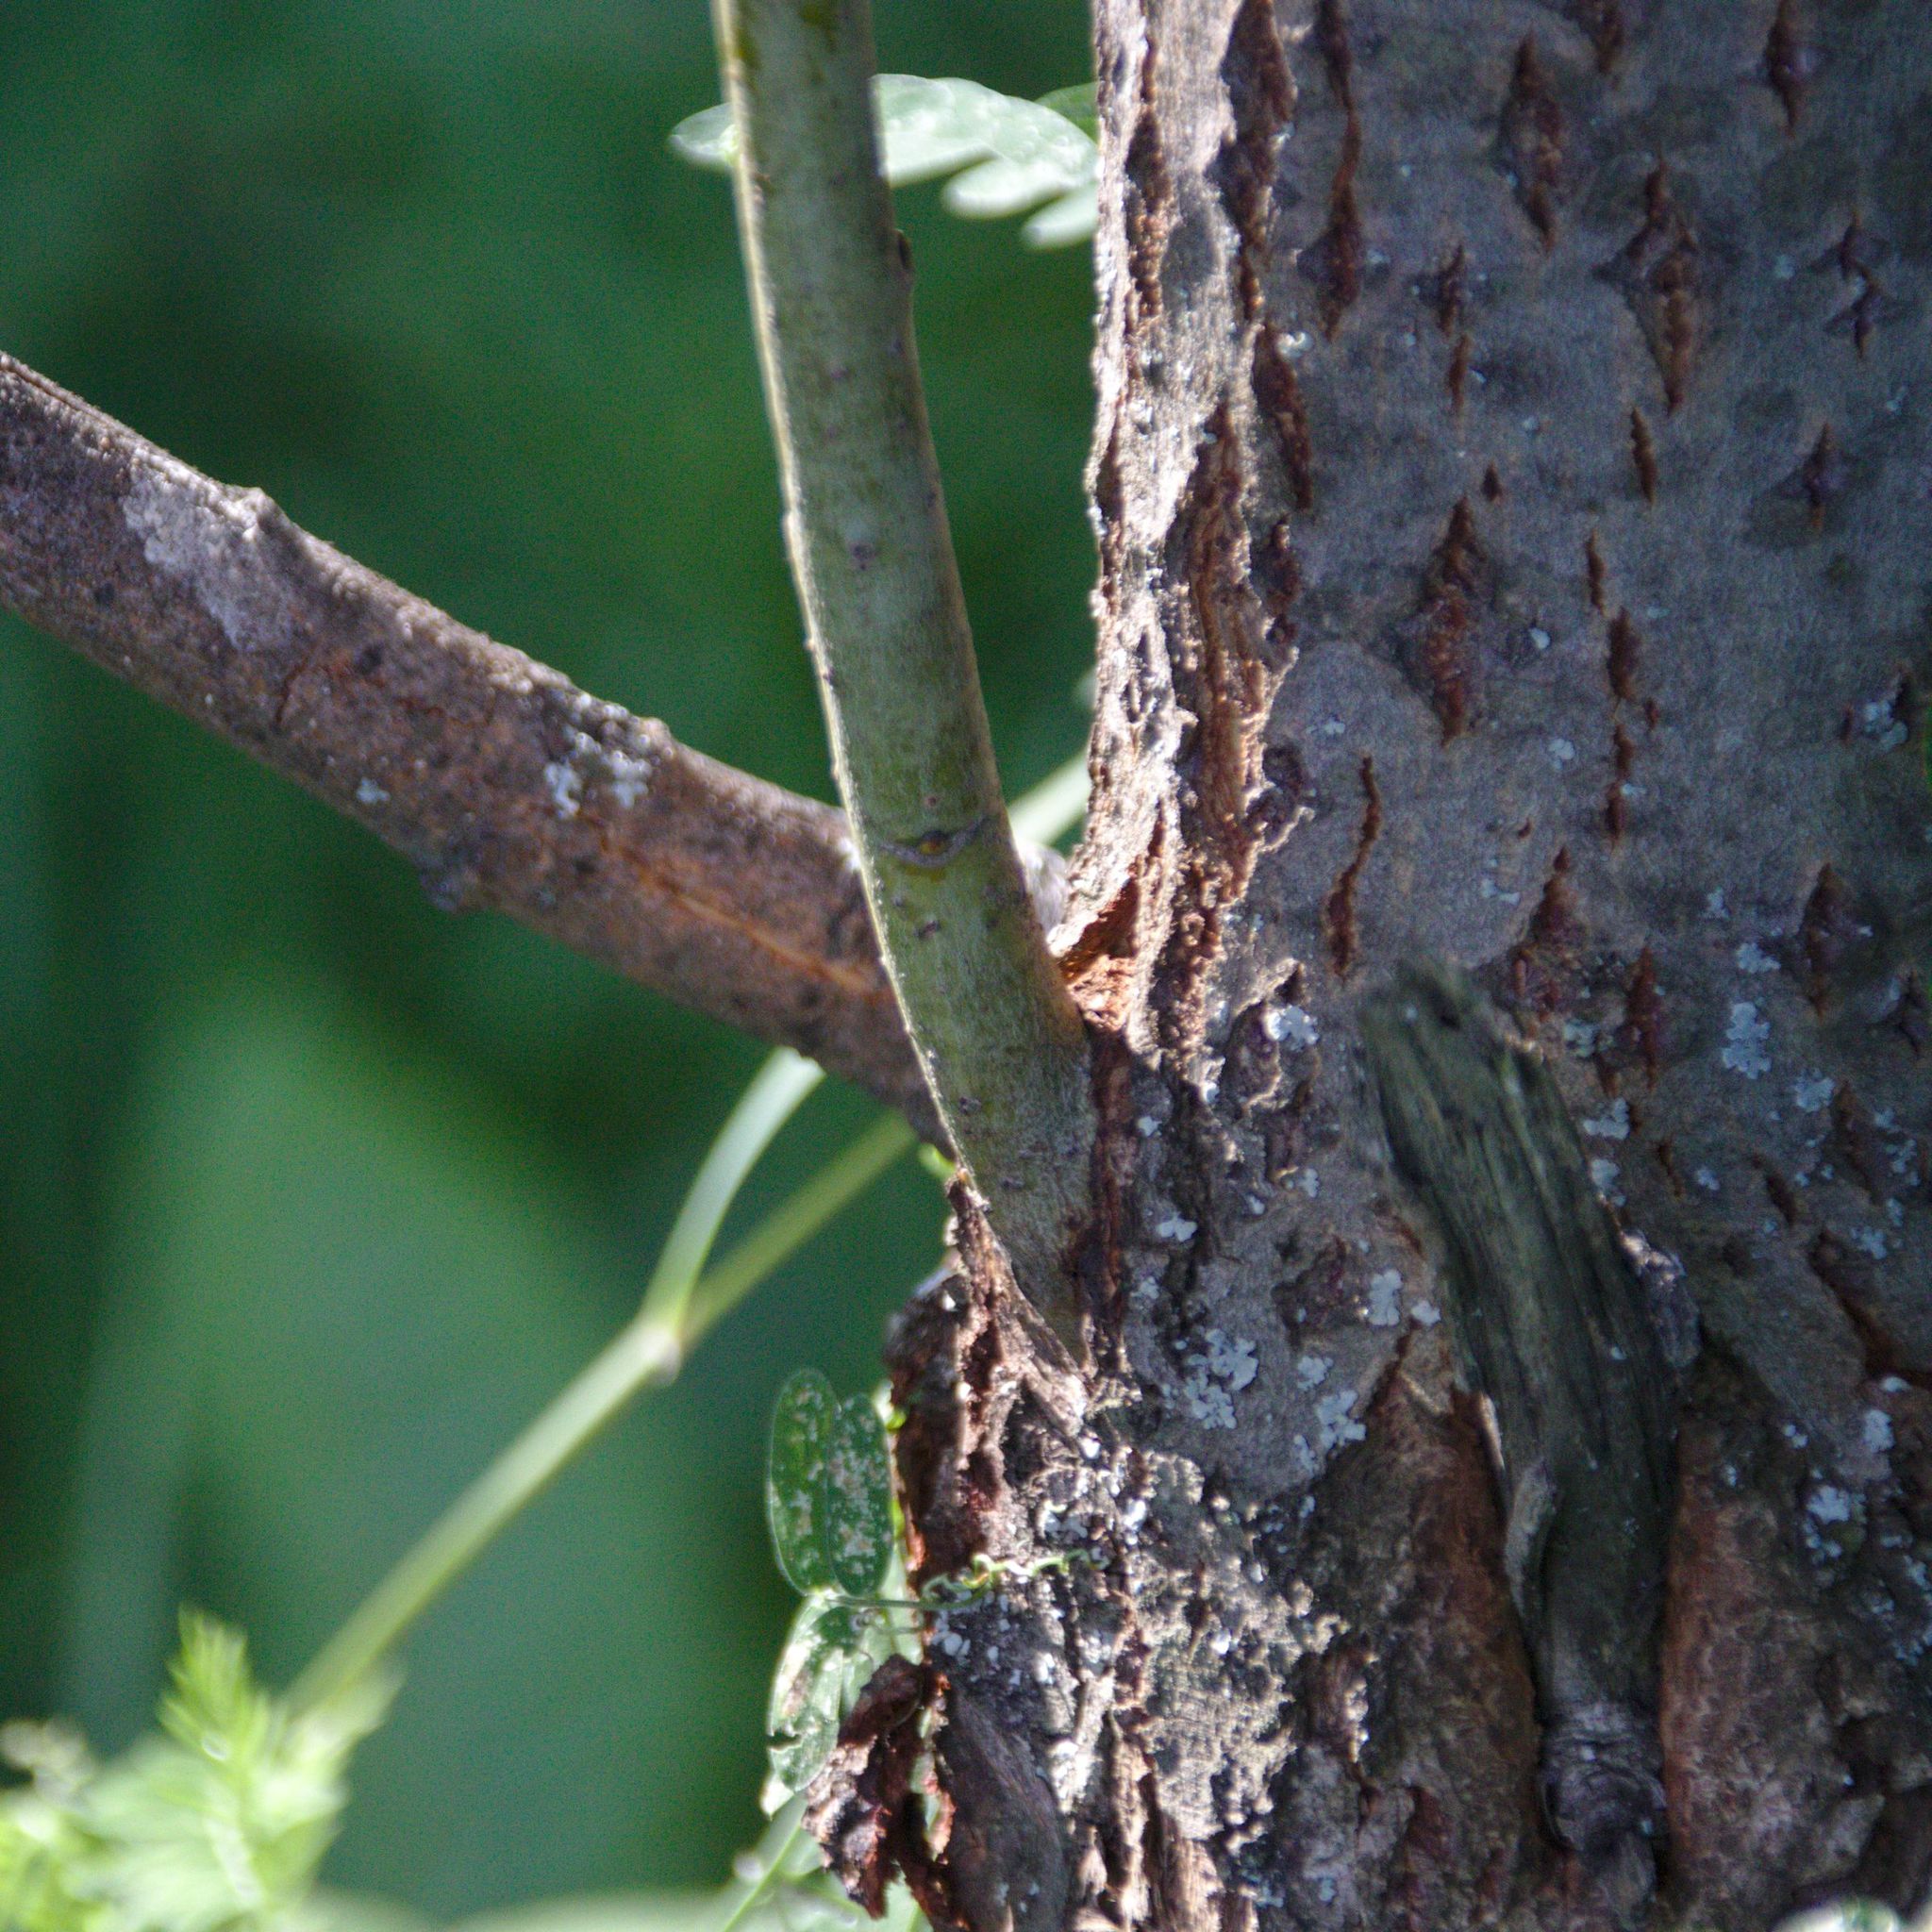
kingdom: Plantae
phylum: Tracheophyta
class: Magnoliopsida
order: Malpighiales
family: Salicaceae
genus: Salix
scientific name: Salix caprea
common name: Goat willow
